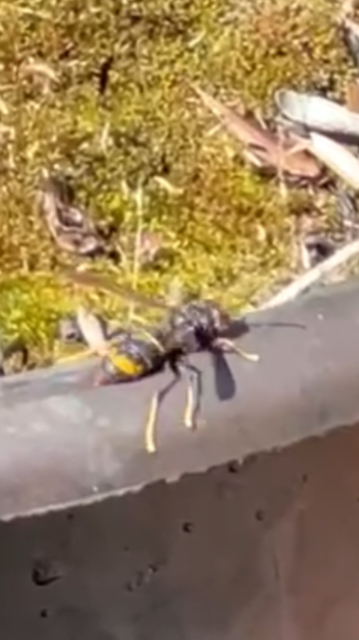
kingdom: Animalia
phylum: Arthropoda
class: Insecta
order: Hymenoptera
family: Vespidae
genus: Vespa
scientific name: Vespa velutina
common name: Asian hornet
